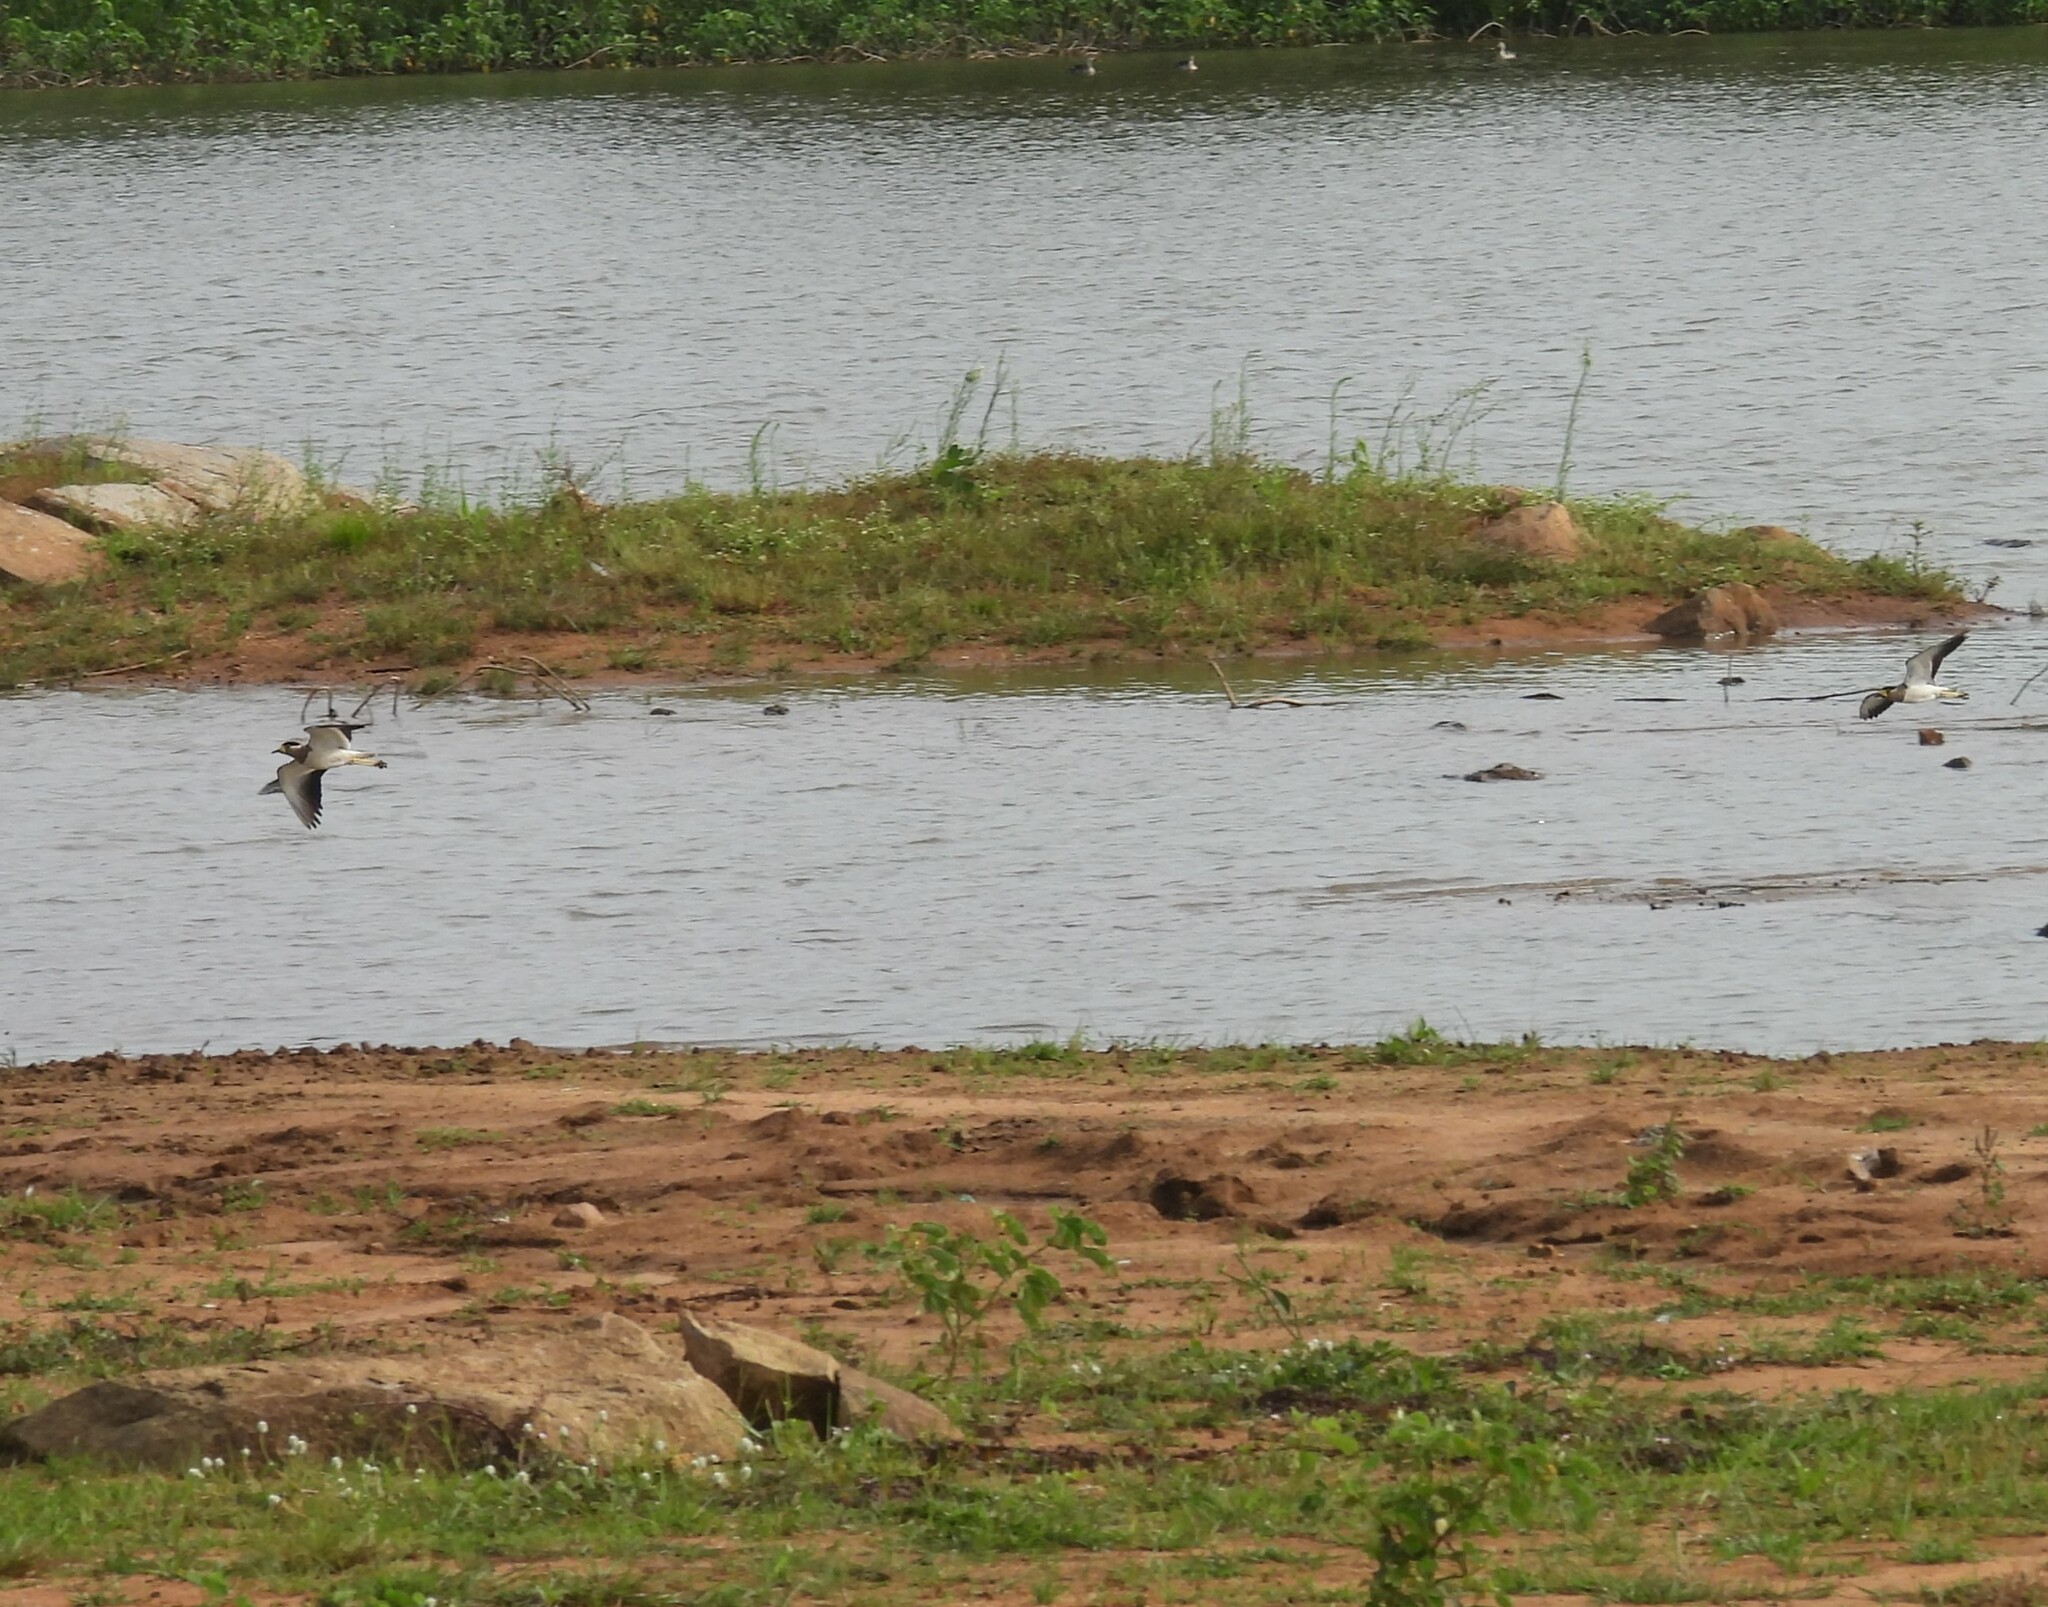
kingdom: Animalia
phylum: Chordata
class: Aves
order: Charadriiformes
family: Charadriidae
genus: Vanellus
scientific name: Vanellus malabaricus
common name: Yellow-wattled lapwing
